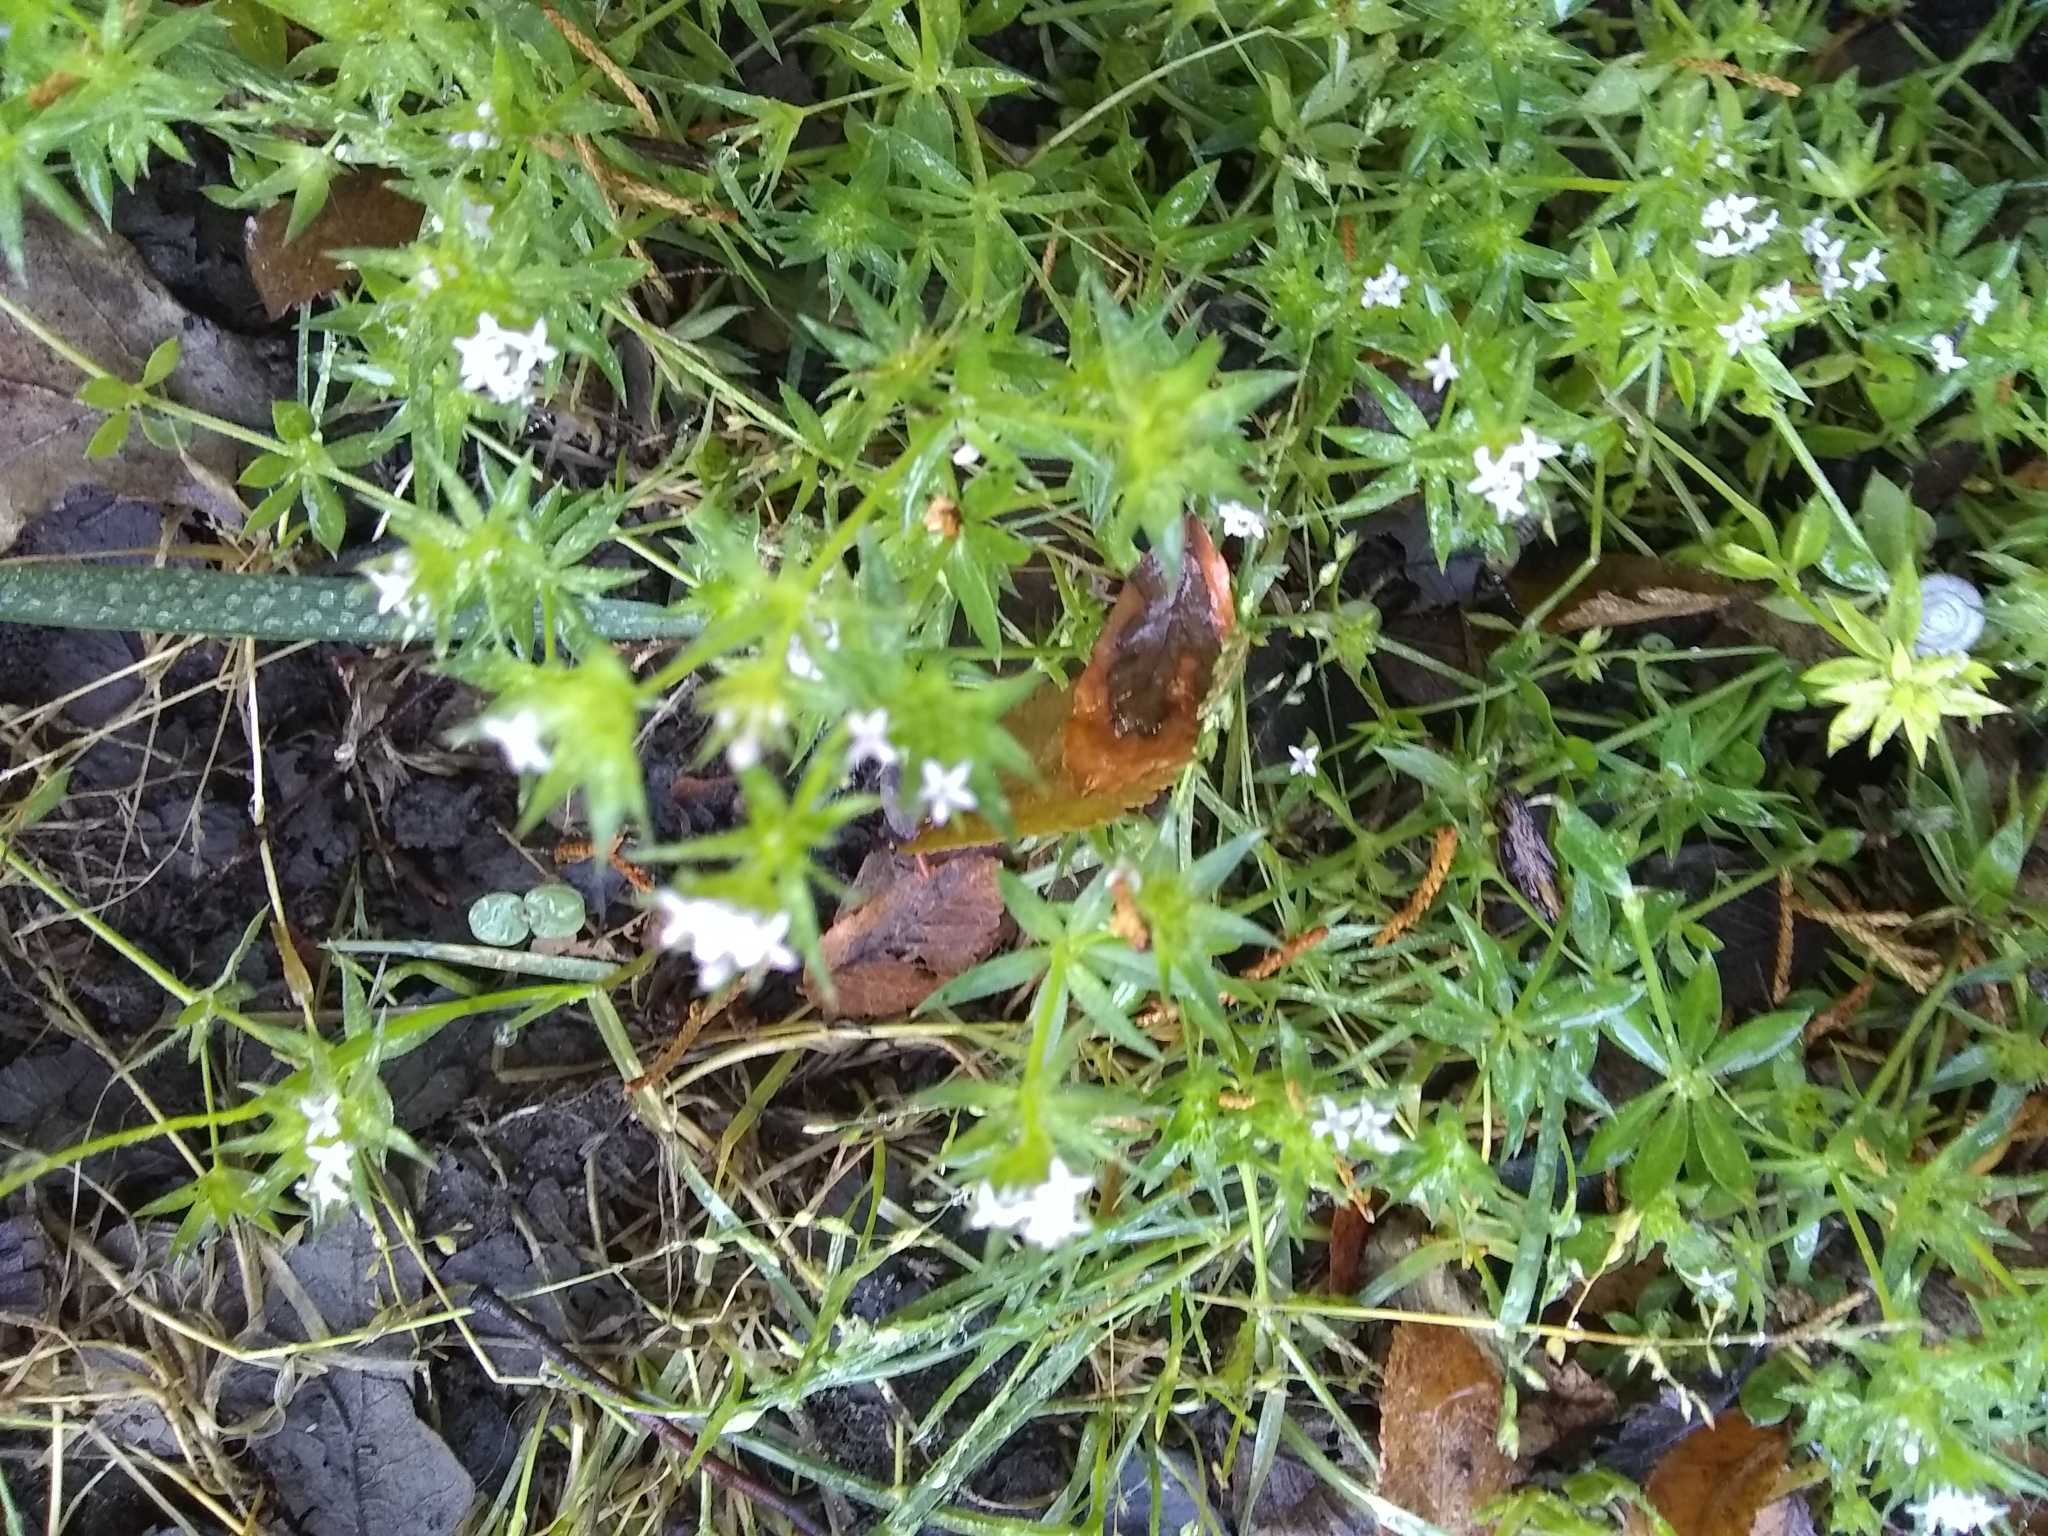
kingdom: Plantae
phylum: Tracheophyta
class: Magnoliopsida
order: Gentianales
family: Rubiaceae
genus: Sherardia
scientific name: Sherardia arvensis
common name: Field madder
